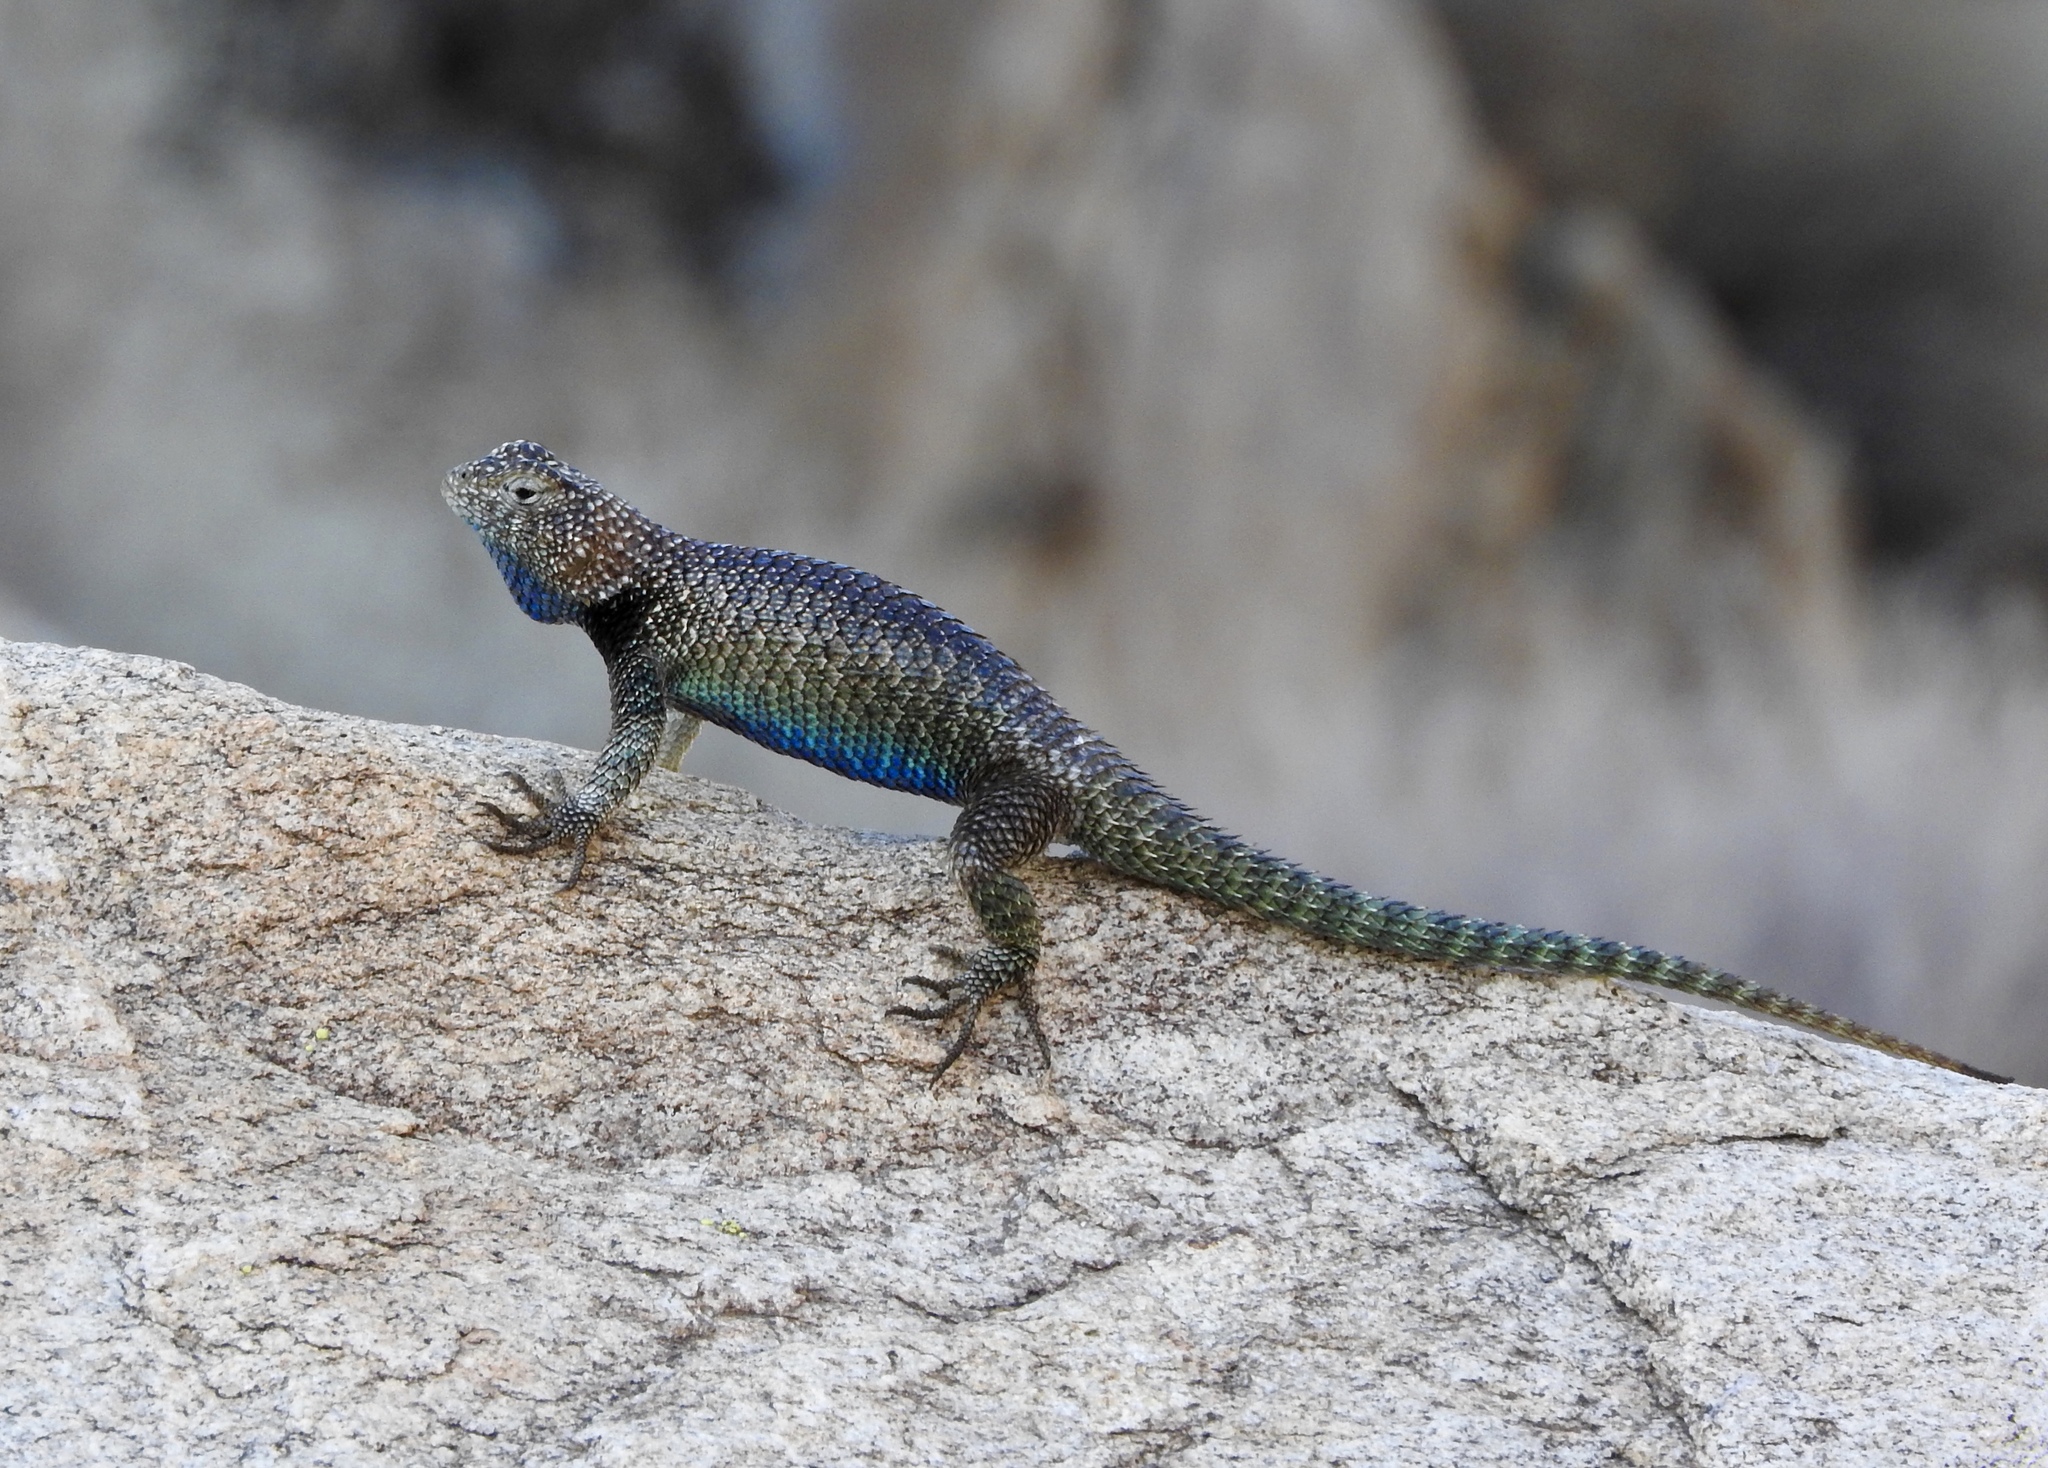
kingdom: Animalia
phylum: Chordata
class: Squamata
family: Phrynosomatidae
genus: Sceloporus
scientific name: Sceloporus orcutti
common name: Granite spiny lizard
